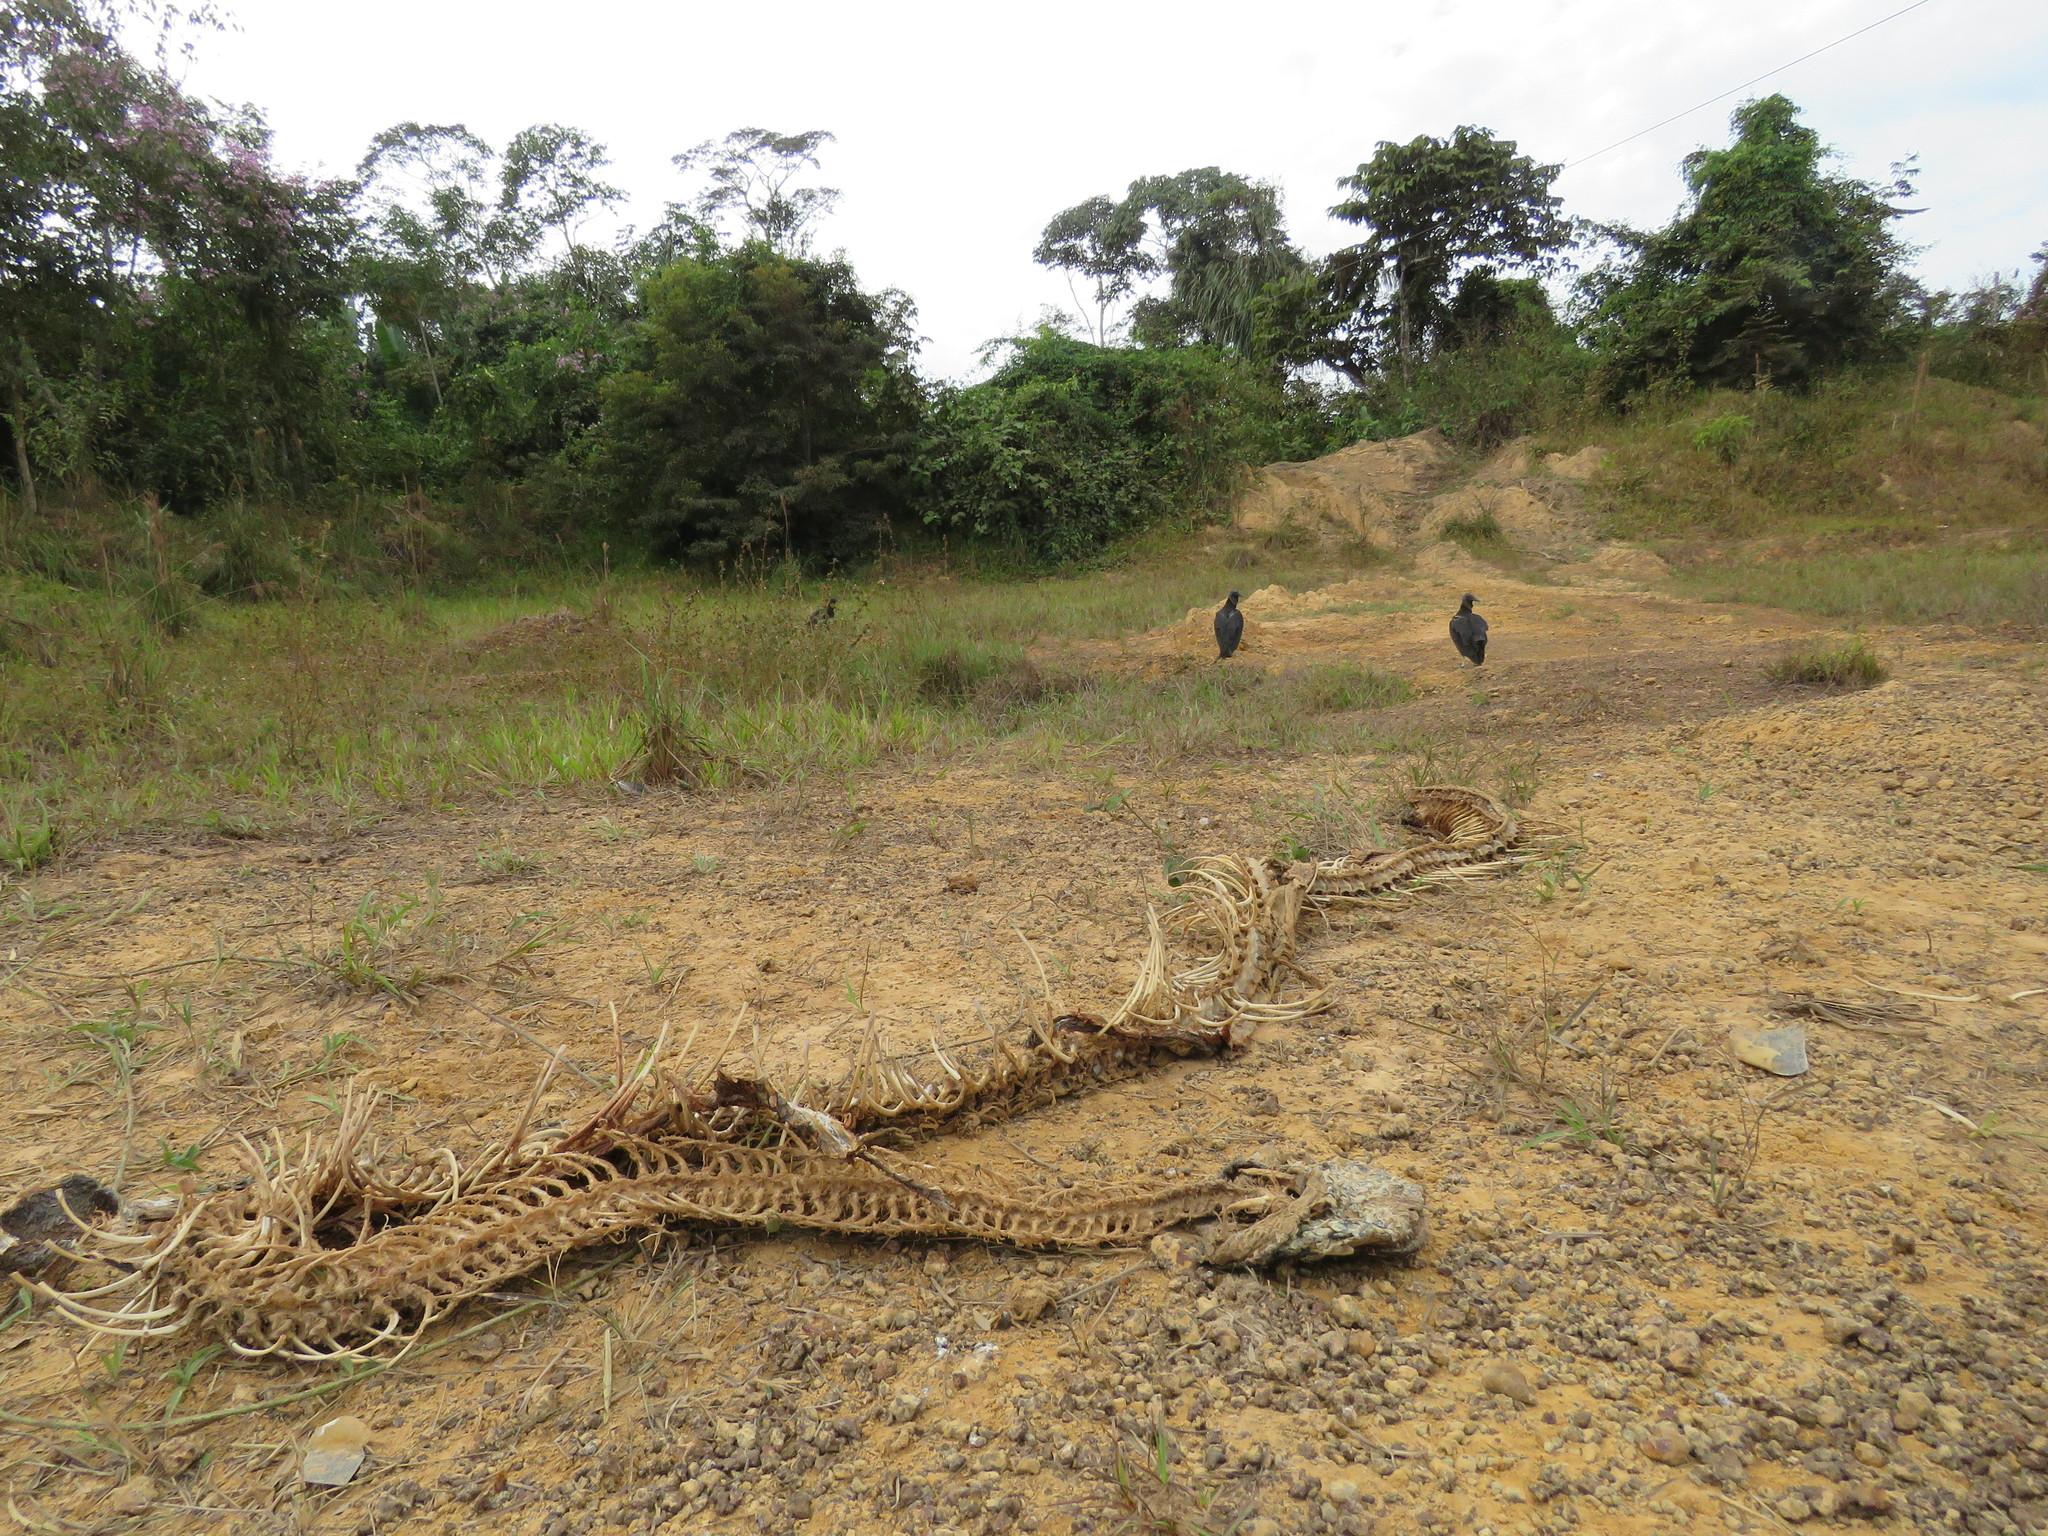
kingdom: Animalia
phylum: Chordata
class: Squamata
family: Boidae
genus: Boa
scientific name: Boa constrictor
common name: Boa constrictor
